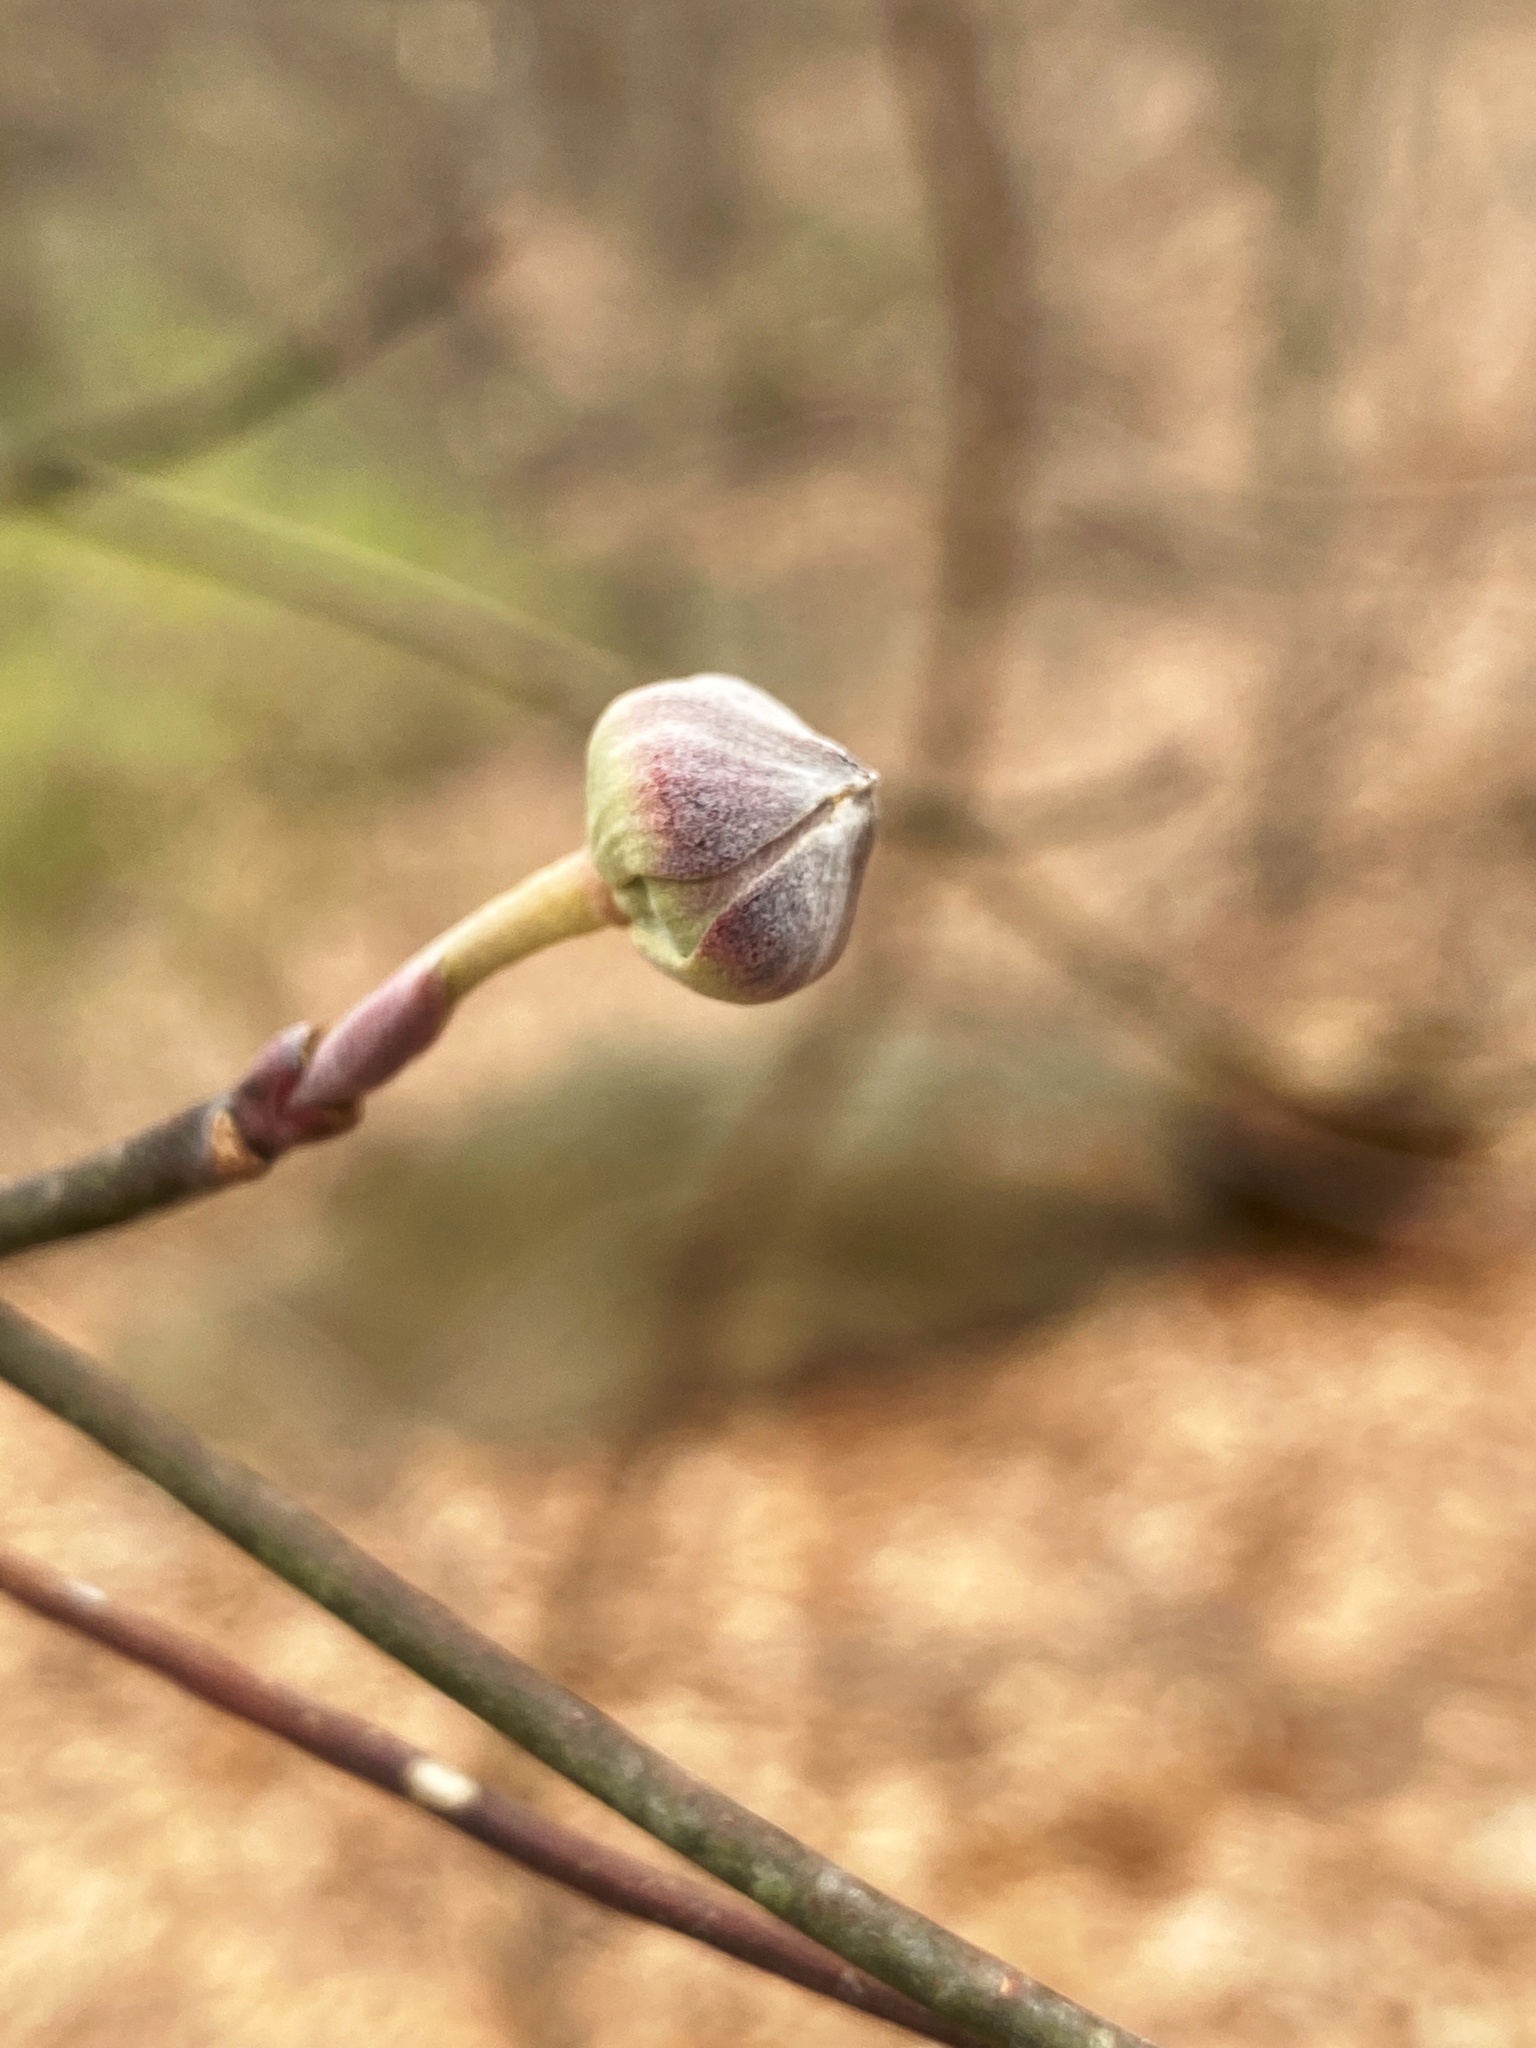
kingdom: Plantae
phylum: Tracheophyta
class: Magnoliopsida
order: Cornales
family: Cornaceae
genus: Cornus
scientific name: Cornus florida
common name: Flowering dogwood
